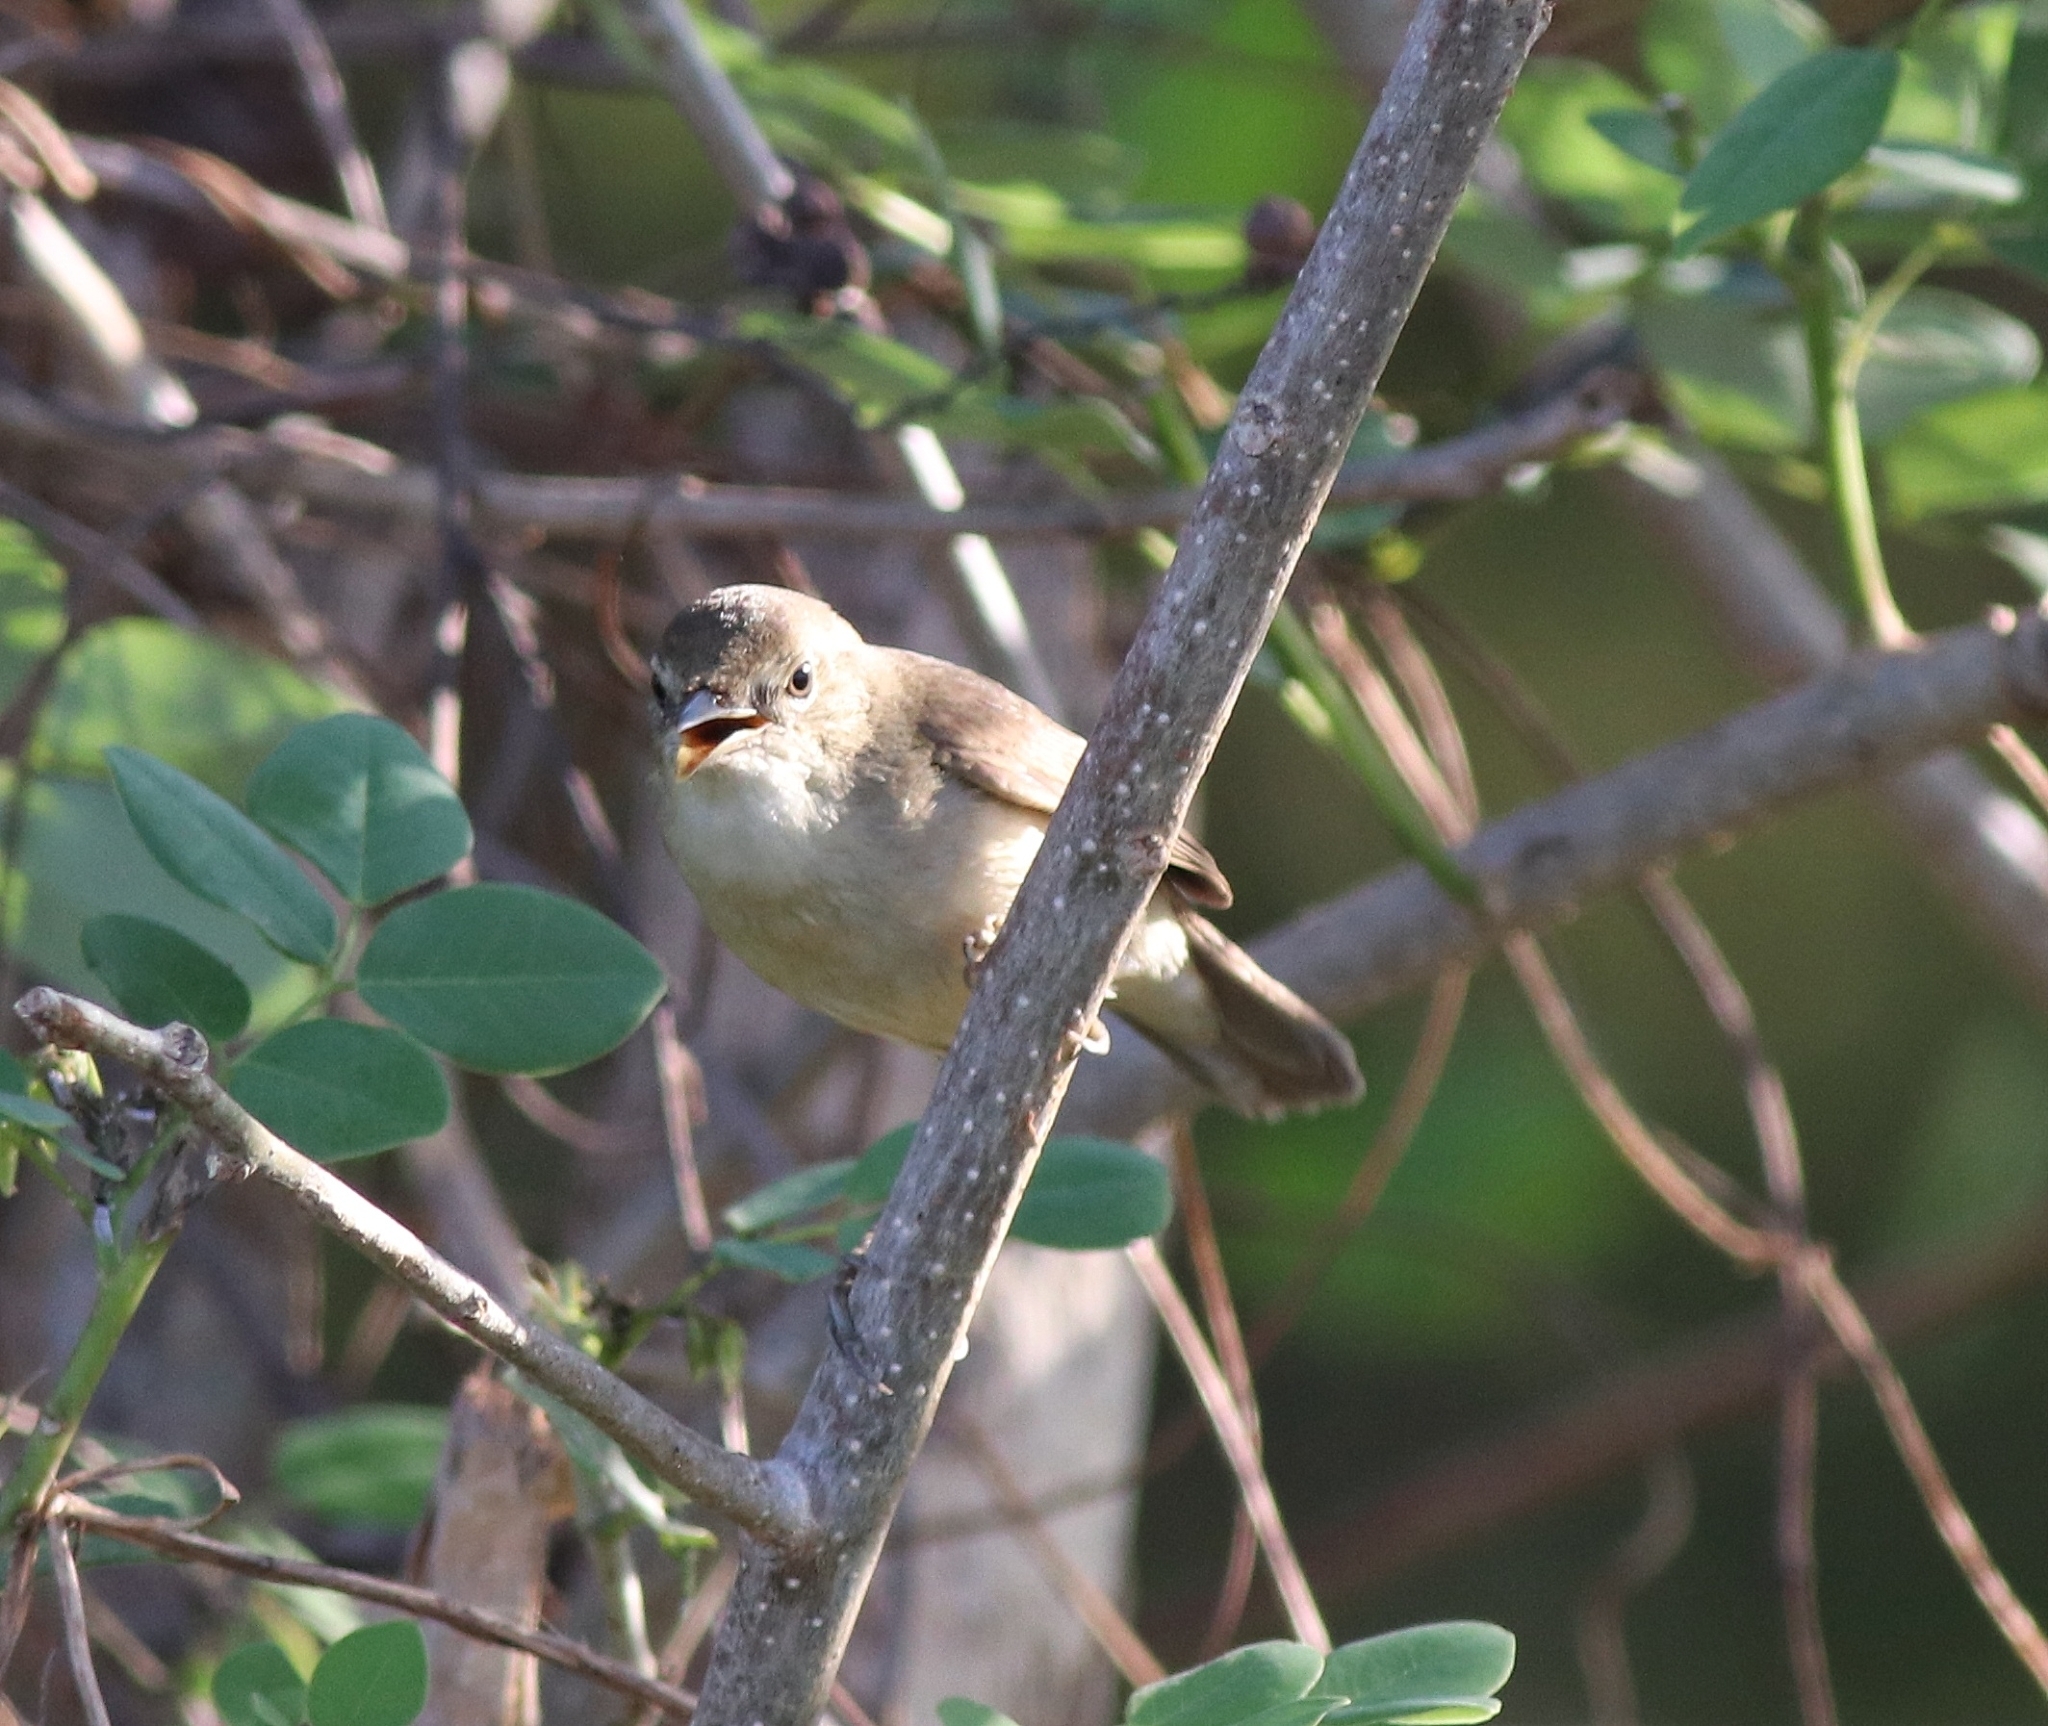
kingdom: Animalia
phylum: Chordata
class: Aves
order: Passeriformes
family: Acrocephalidae
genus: Acrocephalus
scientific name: Acrocephalus dumetorum
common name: Blyth's reed warbler
